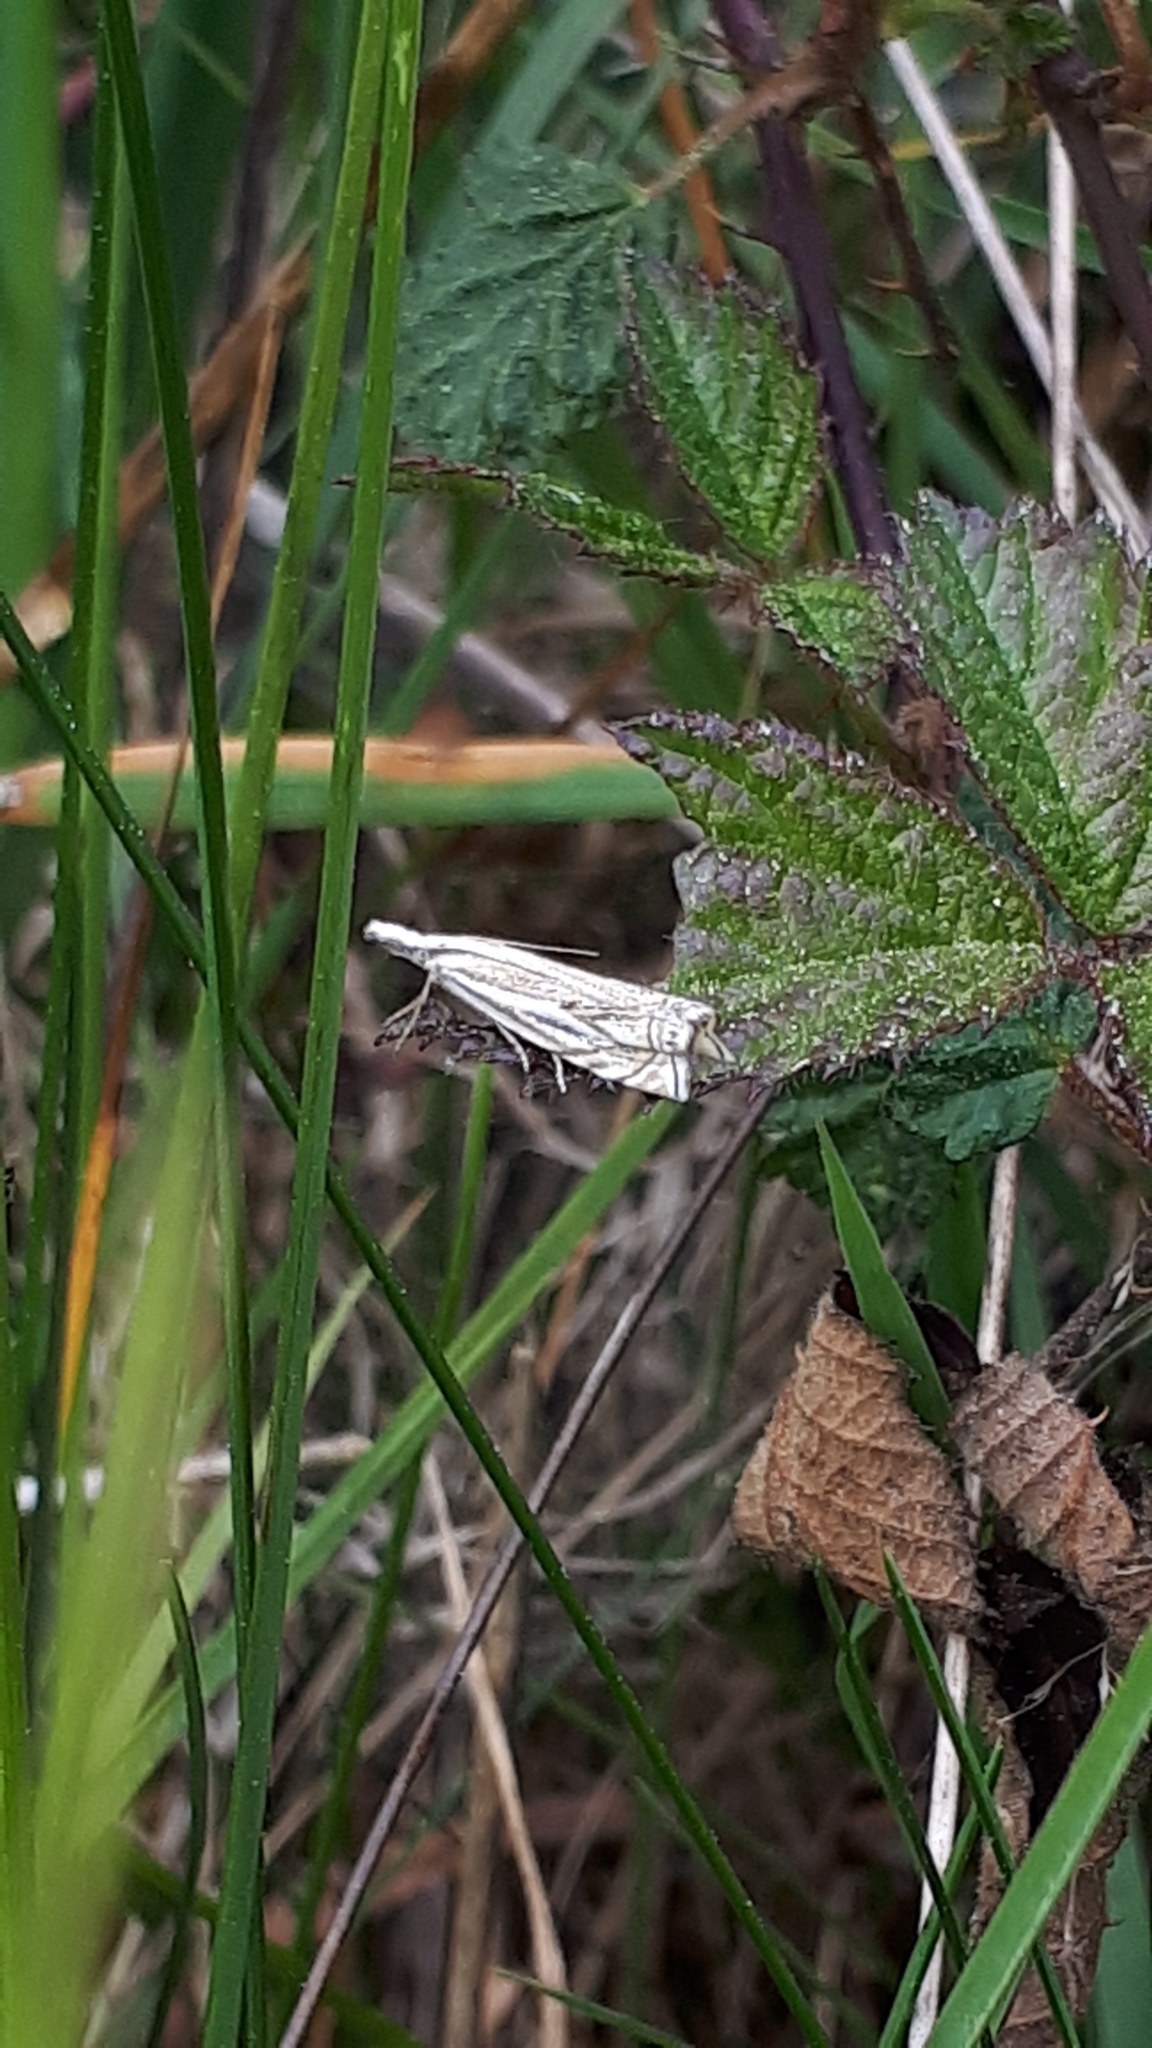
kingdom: Animalia
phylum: Arthropoda
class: Insecta
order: Lepidoptera
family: Crambidae
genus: Crambus
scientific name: Crambus nemorella
